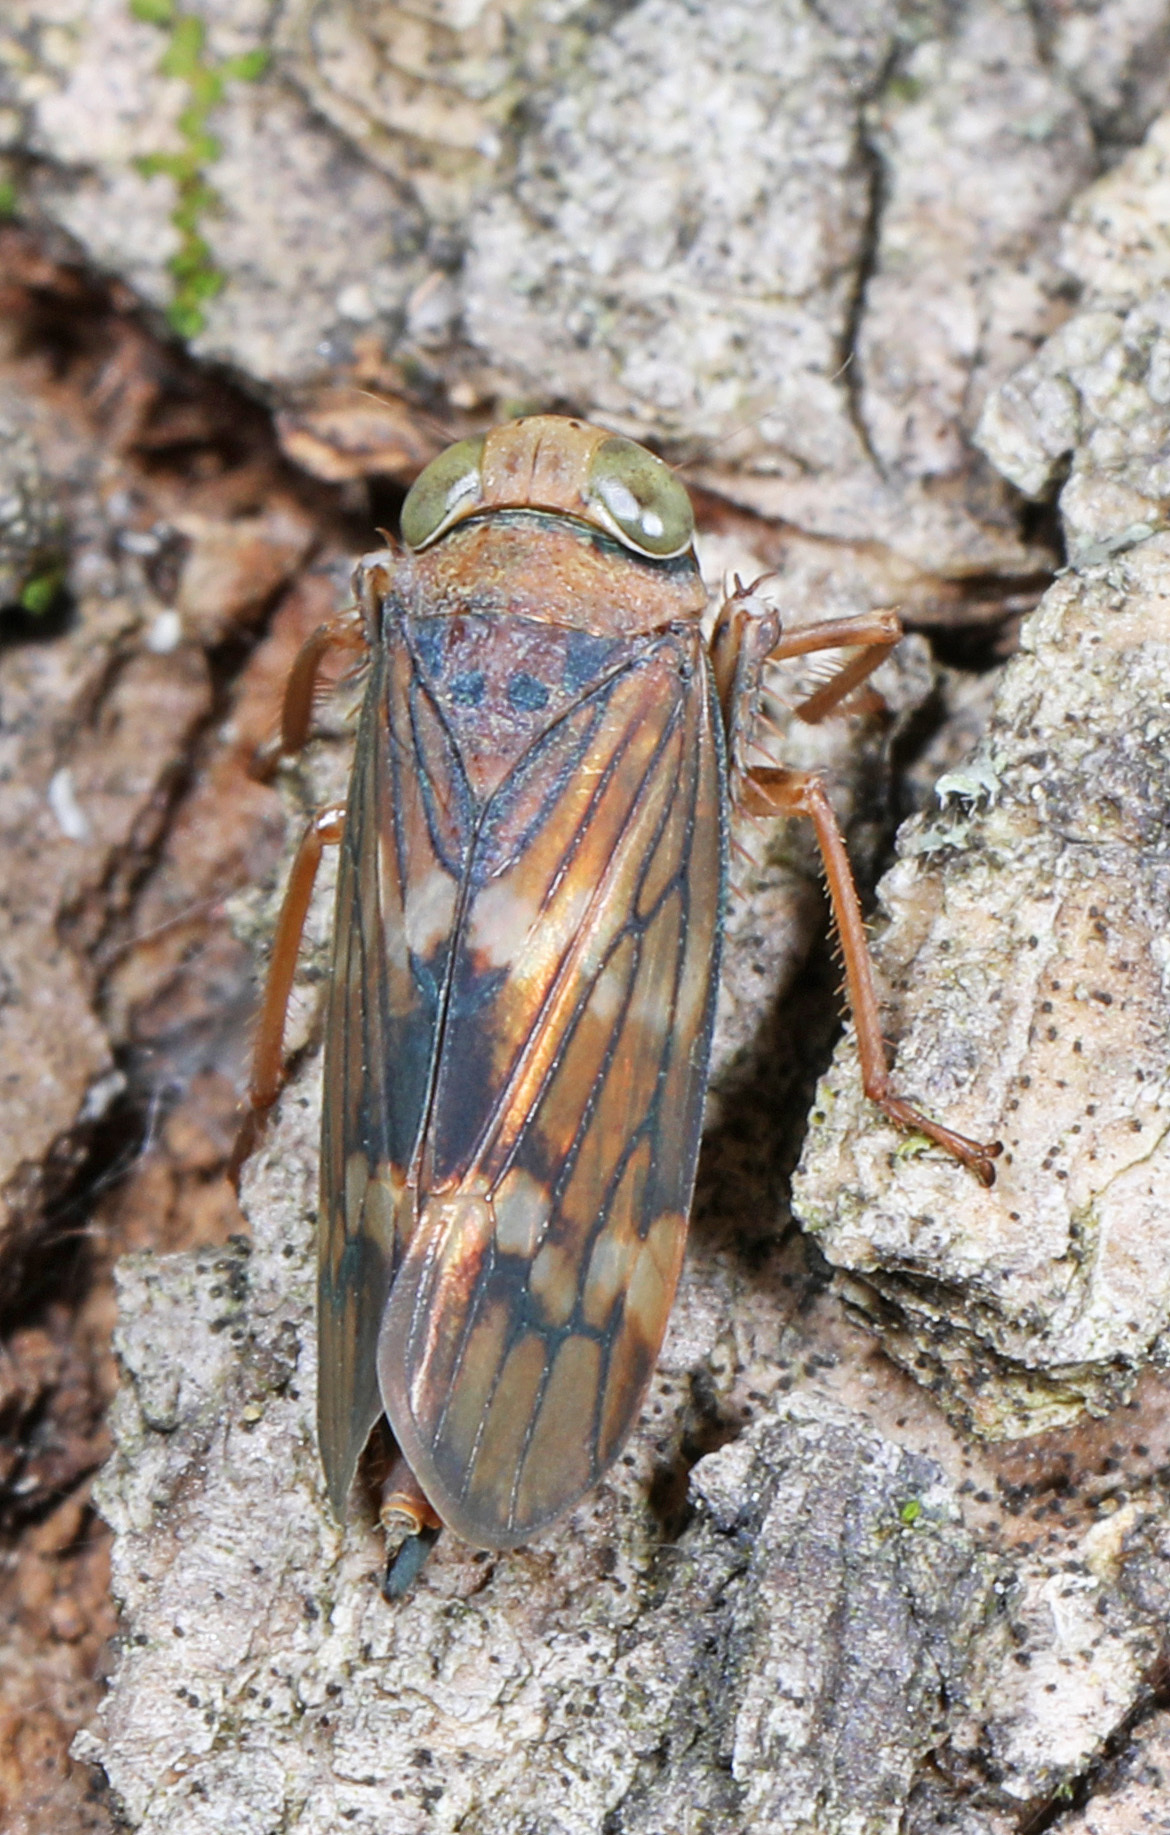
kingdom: Animalia
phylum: Arthropoda
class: Insecta
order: Hemiptera
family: Cicadellidae
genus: Jikradia
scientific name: Jikradia olitoria
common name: Coppery leafhopper
